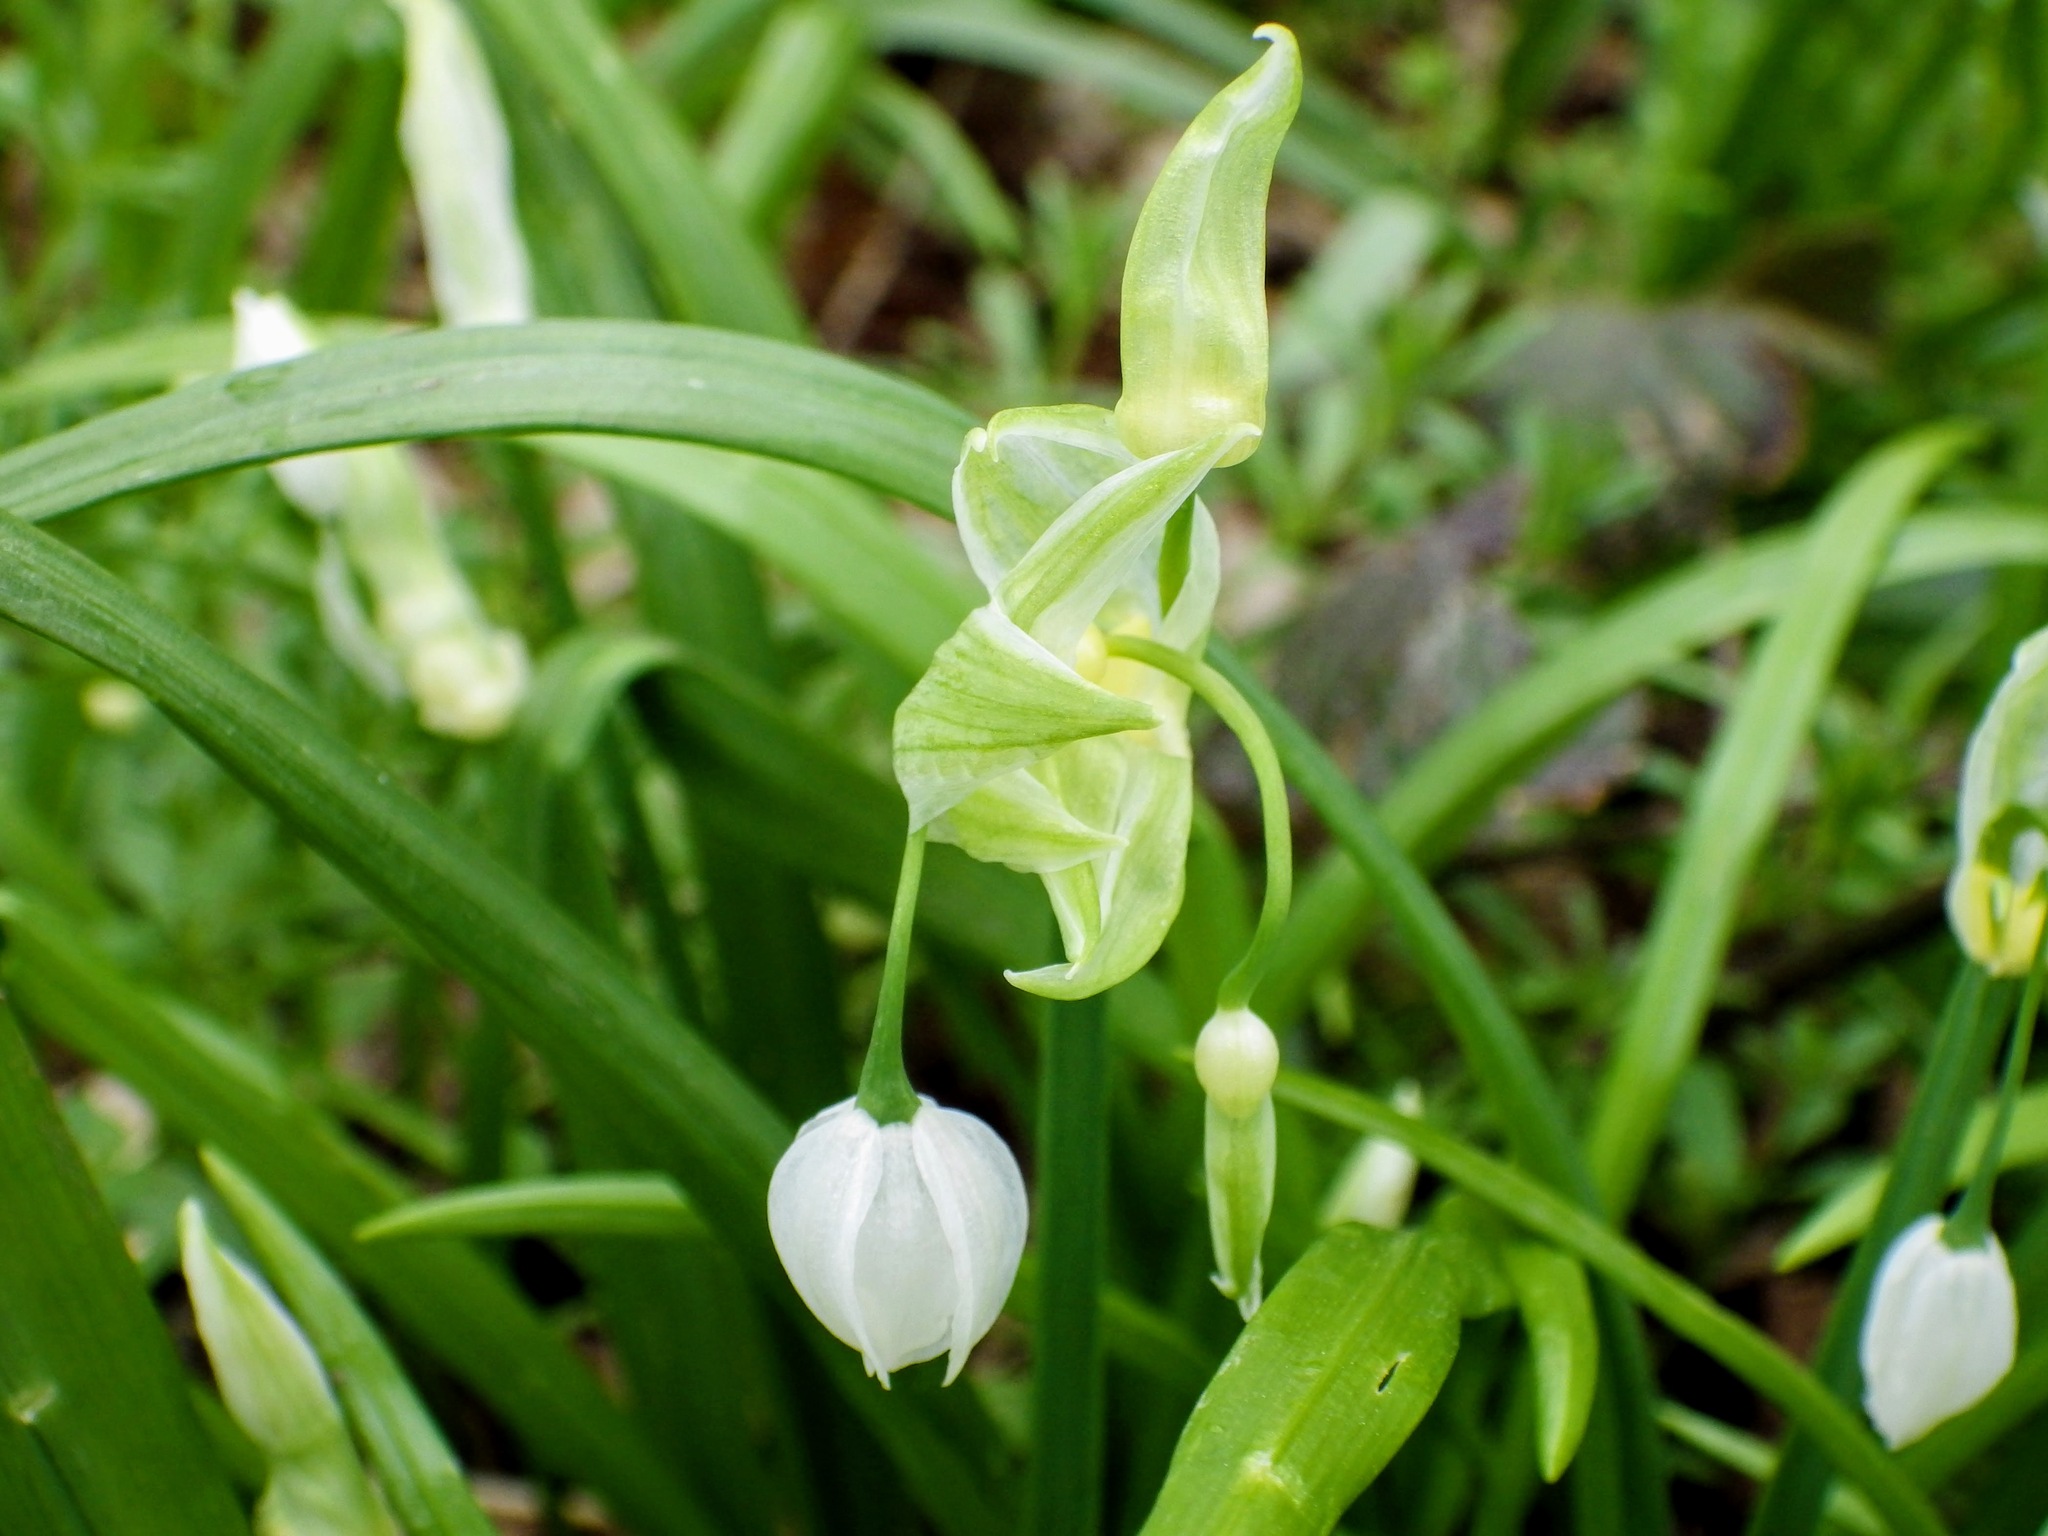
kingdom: Plantae
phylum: Tracheophyta
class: Liliopsida
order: Asparagales
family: Amaryllidaceae
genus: Allium
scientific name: Allium paradoxum
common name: Few-flowered garlic
